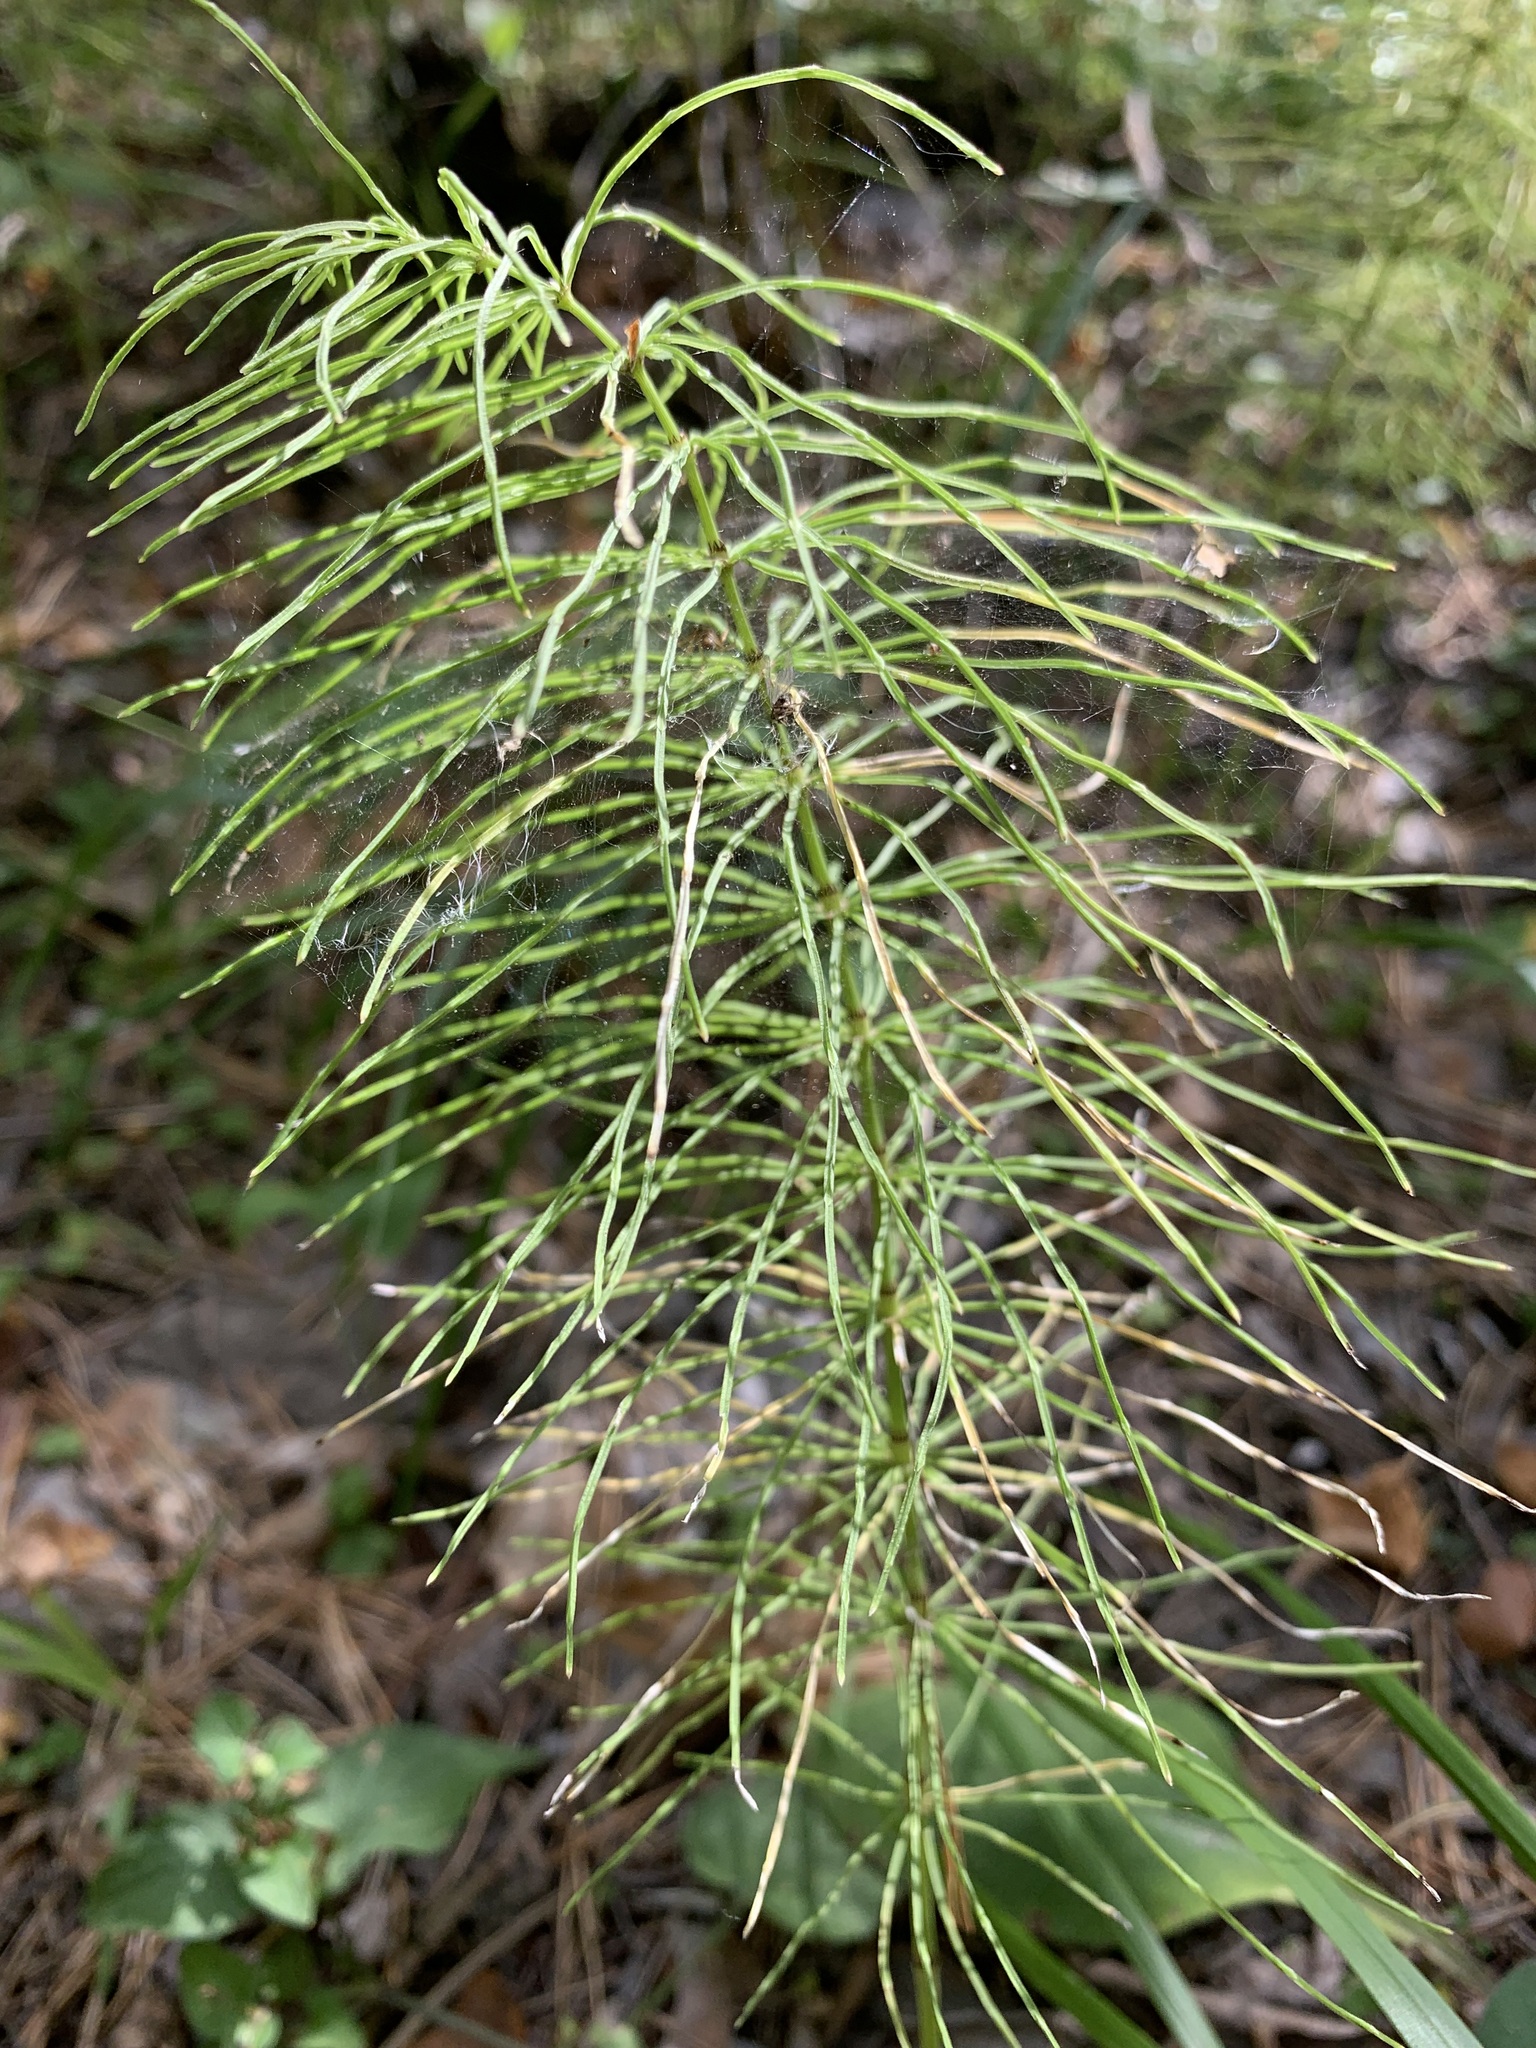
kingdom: Plantae
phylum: Tracheophyta
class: Polypodiopsida
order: Equisetales
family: Equisetaceae
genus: Equisetum
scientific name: Equisetum pratense
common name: Meadow horsetail
